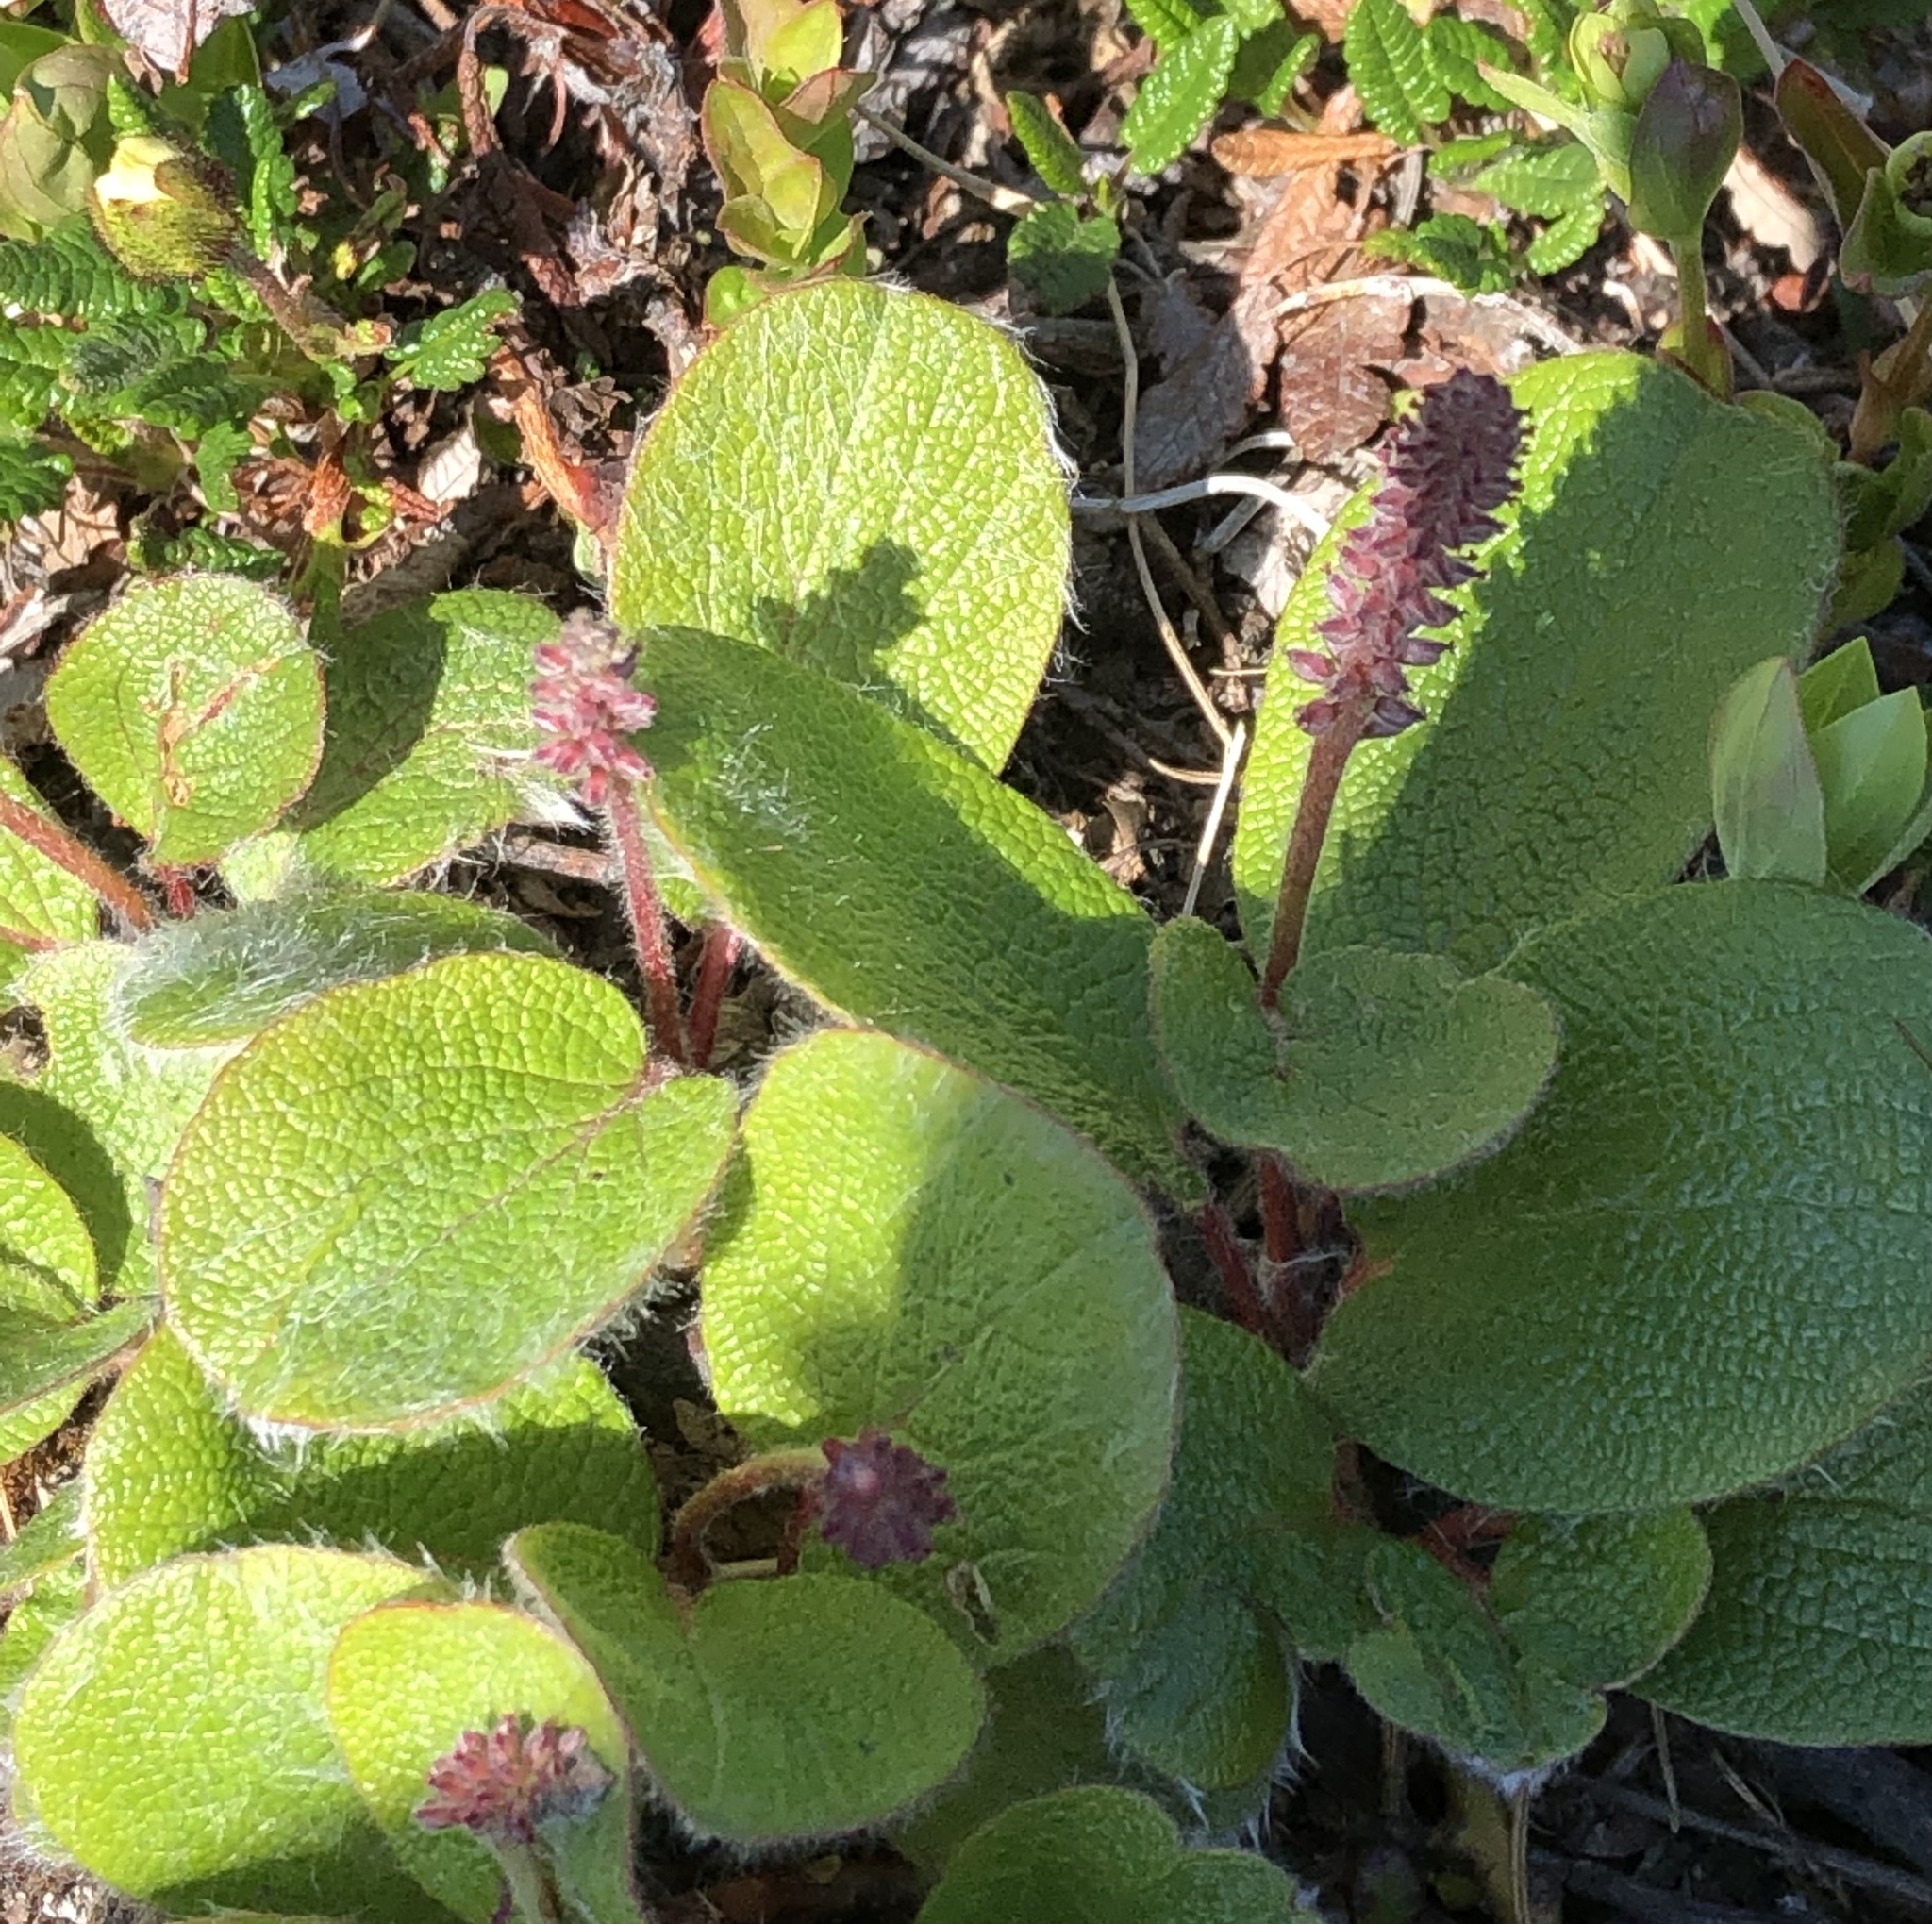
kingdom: Plantae
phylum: Tracheophyta
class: Magnoliopsida
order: Malpighiales
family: Salicaceae
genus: Salix
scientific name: Salix reticulata
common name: Net-leaved willow
